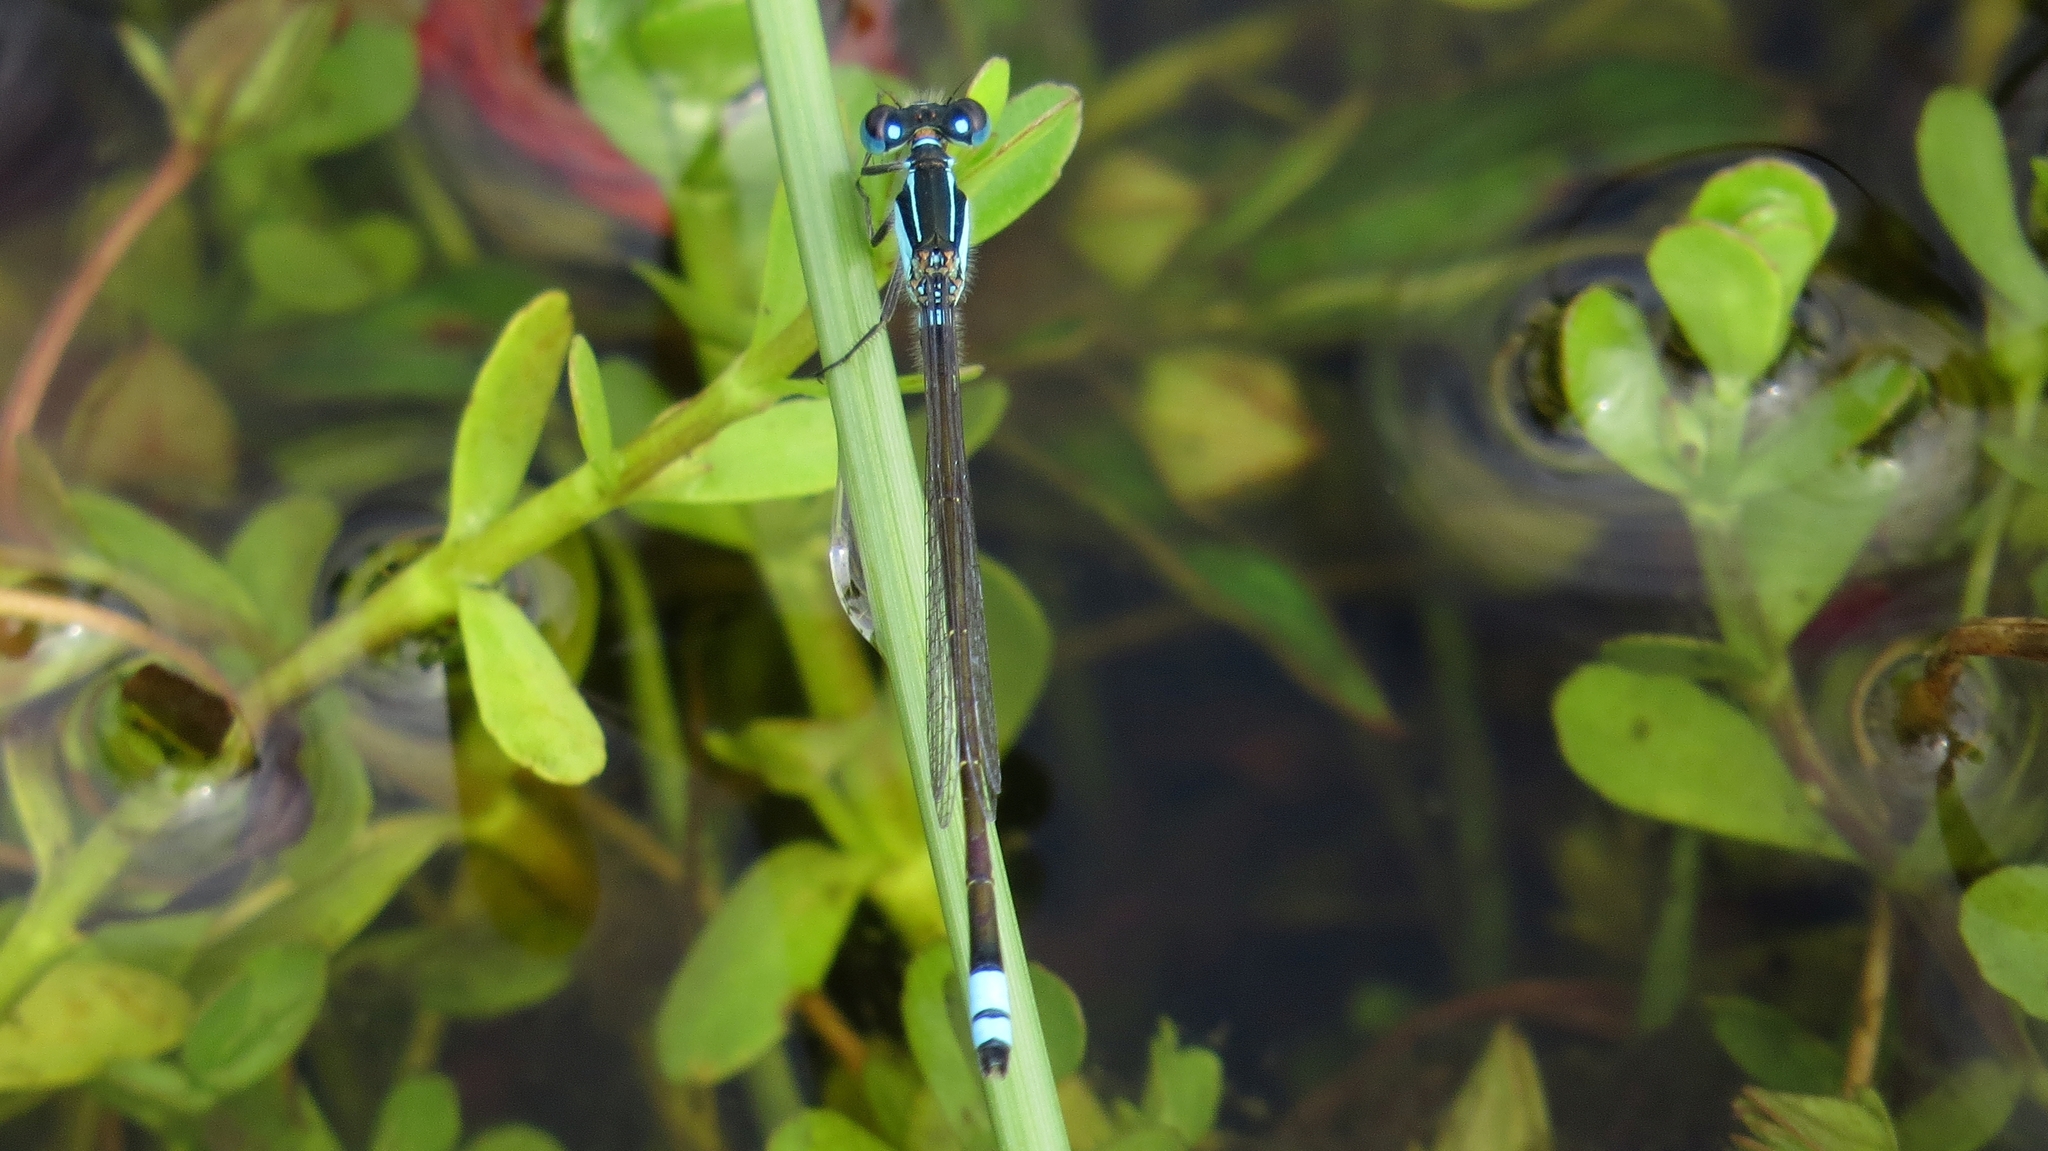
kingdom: Animalia
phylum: Arthropoda
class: Insecta
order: Odonata
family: Coenagrionidae
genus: Ischnura
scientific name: Ischnura heterosticta
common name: Common bluetail
